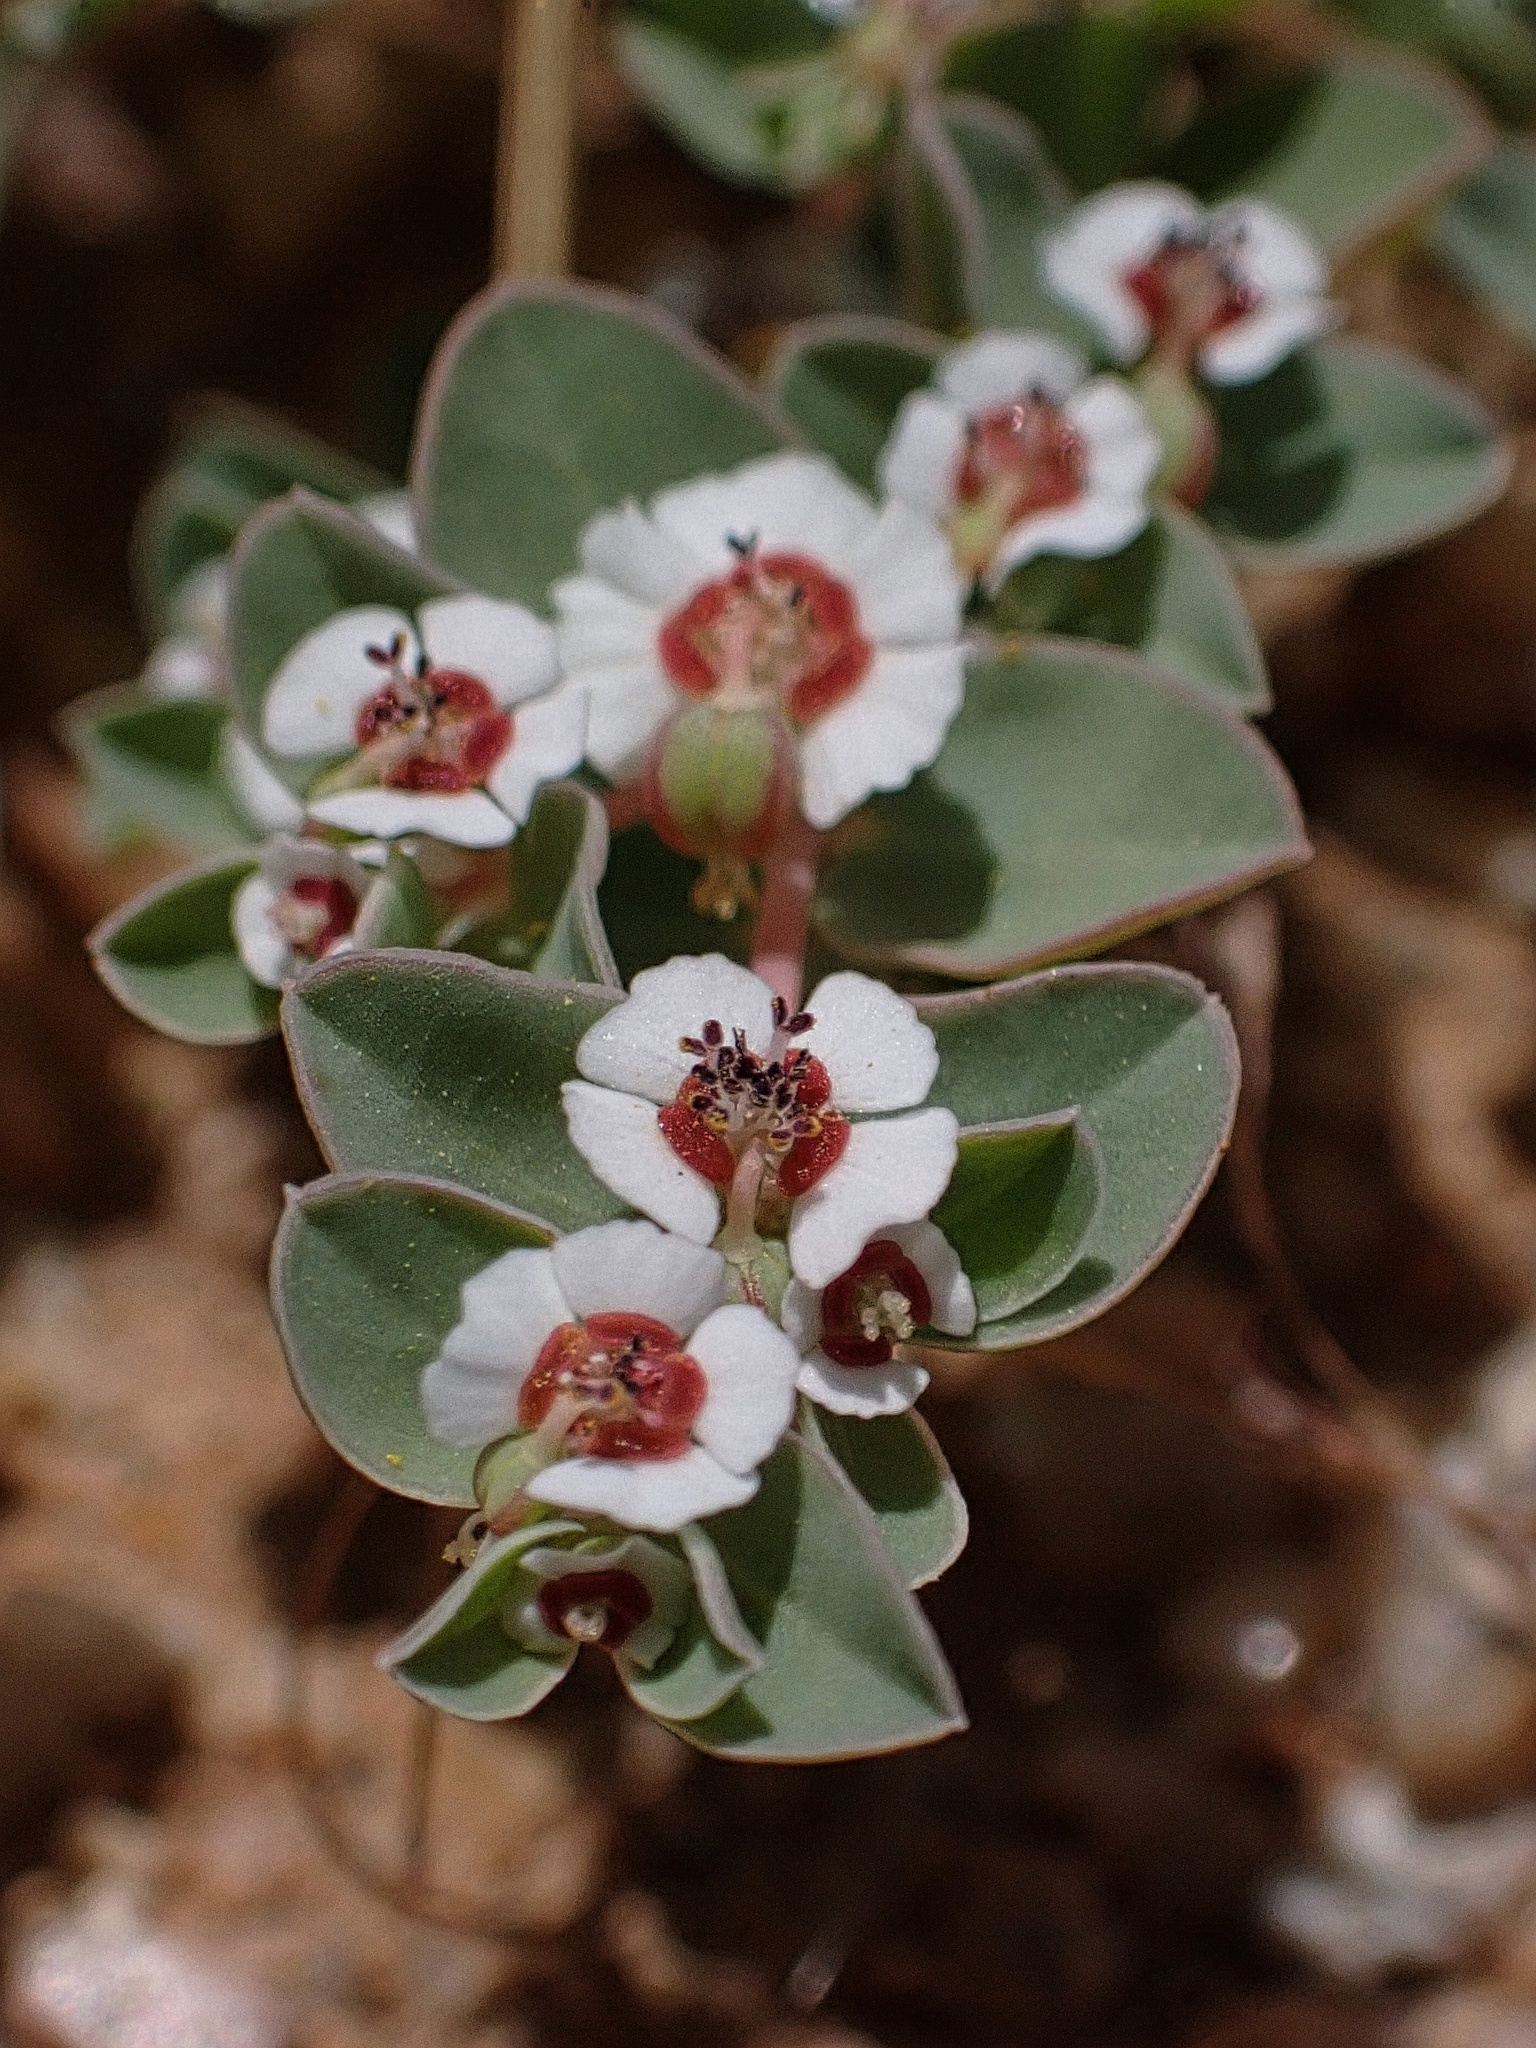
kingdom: Plantae
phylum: Tracheophyta
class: Magnoliopsida
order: Malpighiales
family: Euphorbiaceae
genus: Euphorbia
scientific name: Euphorbia albomarginata
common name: Whitemargin sandmat
